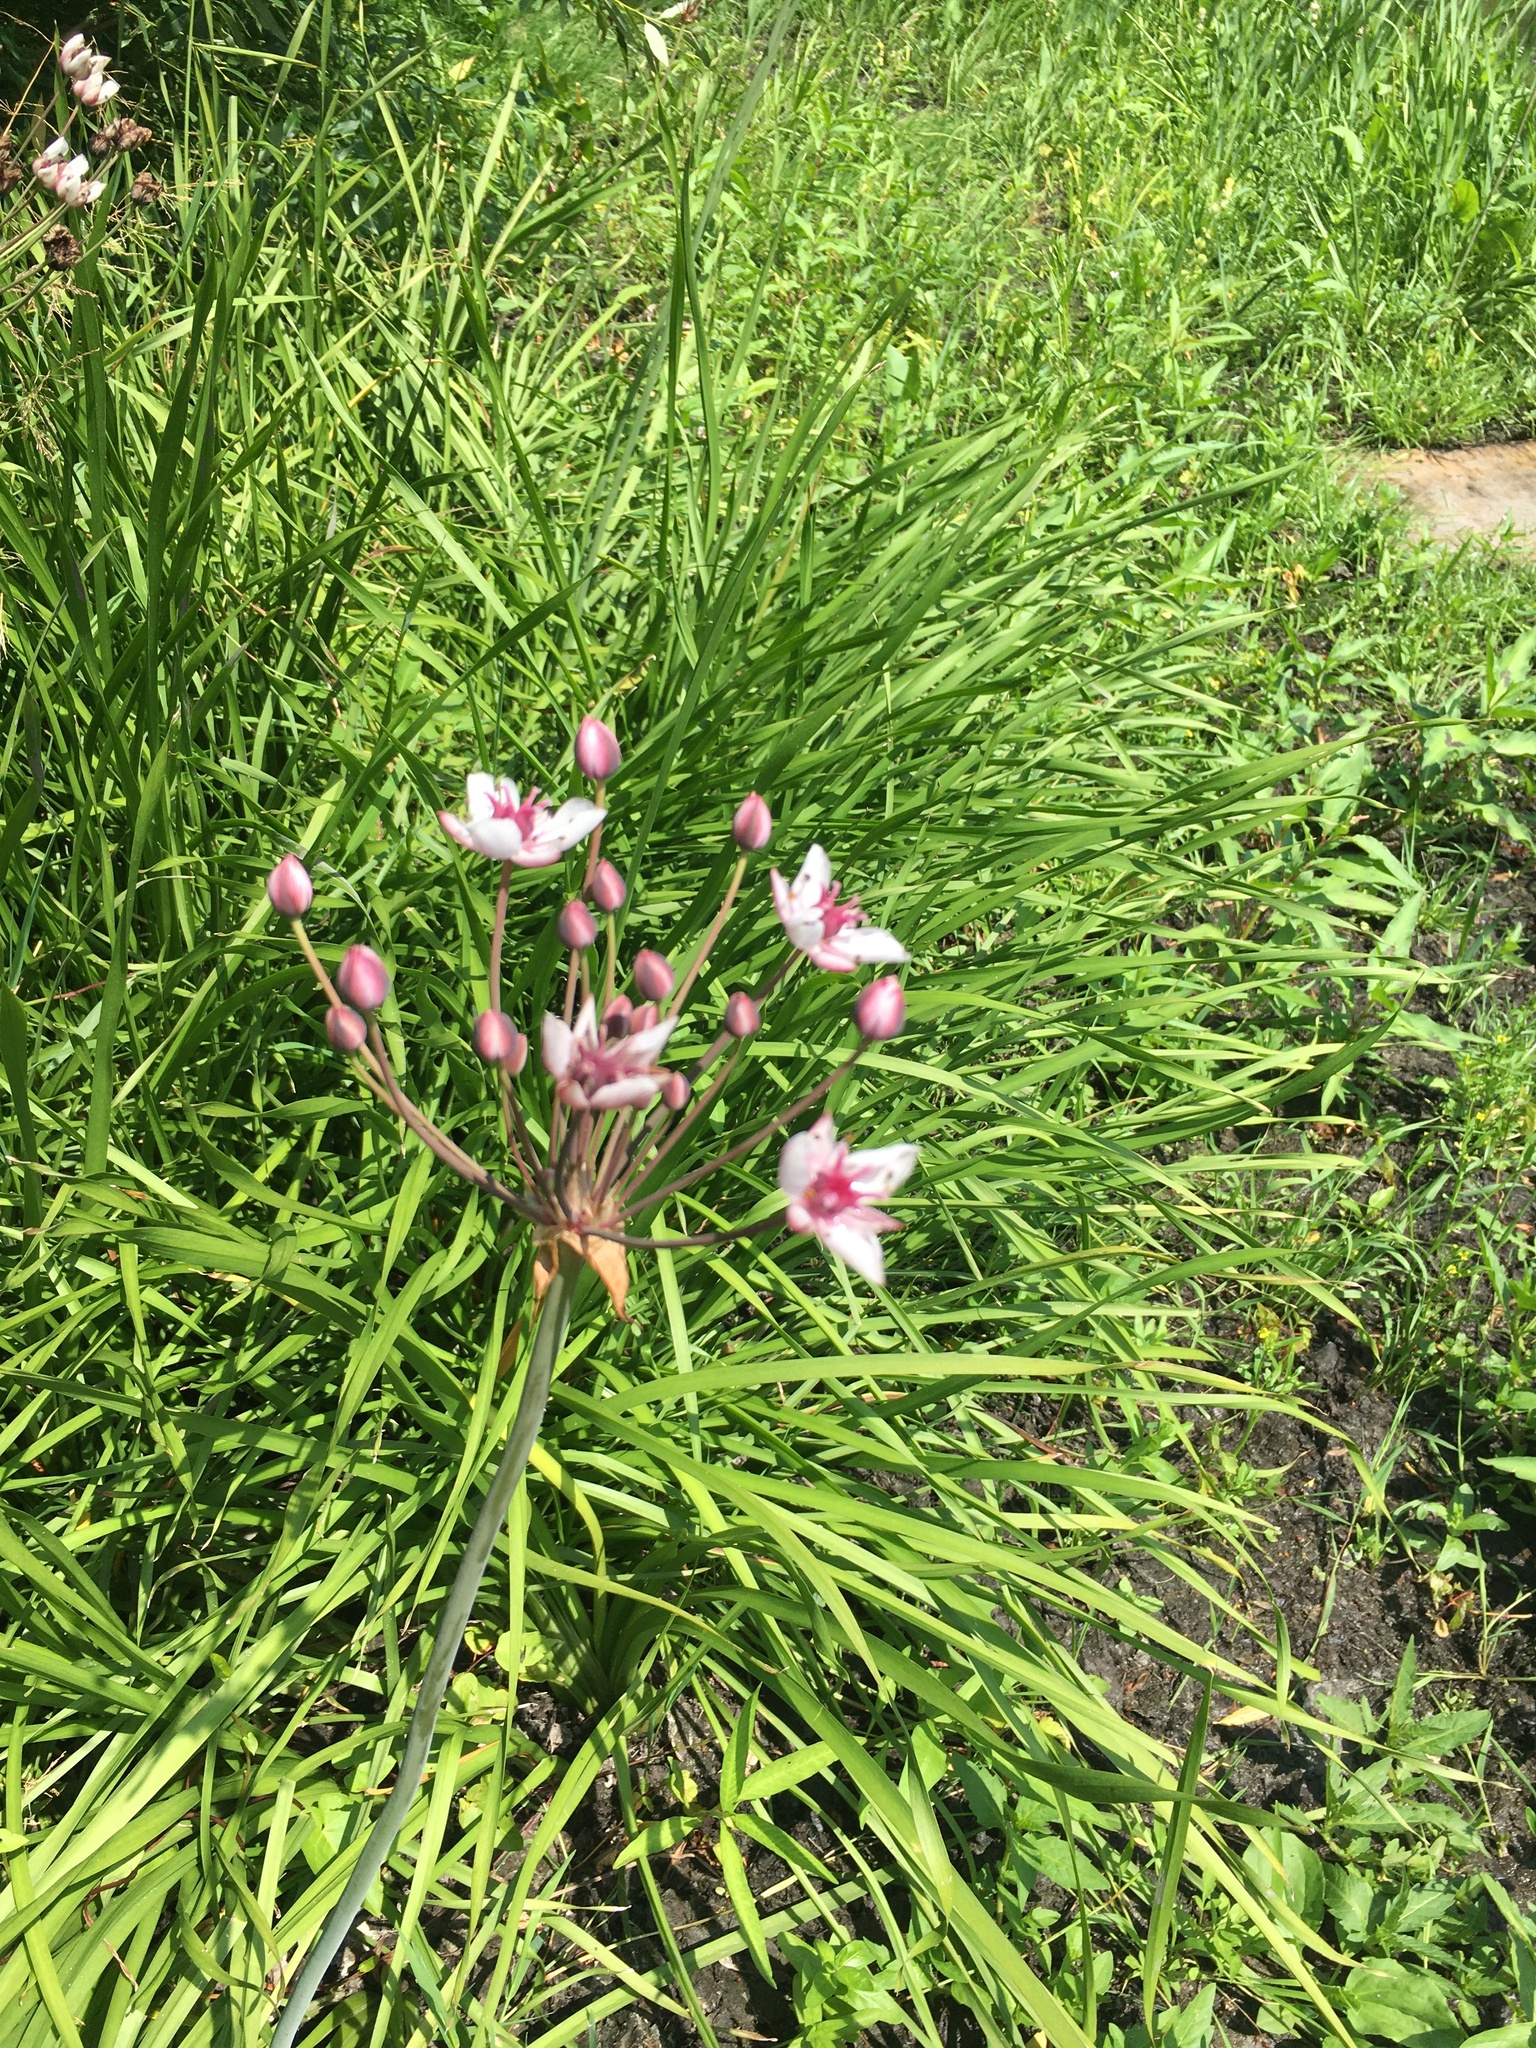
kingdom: Plantae
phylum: Tracheophyta
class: Liliopsida
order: Alismatales
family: Butomaceae
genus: Butomus
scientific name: Butomus umbellatus
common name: Flowering-rush
